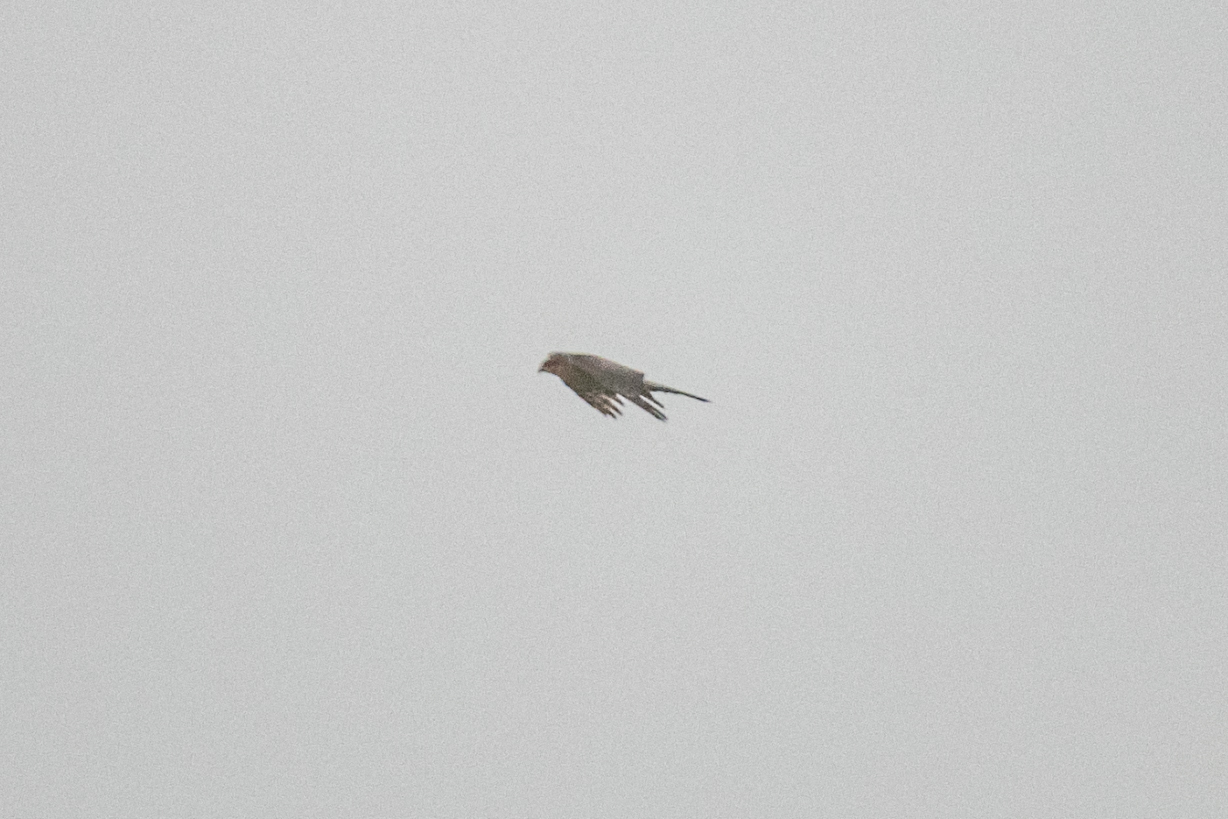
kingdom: Animalia
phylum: Chordata
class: Aves
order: Accipitriformes
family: Accipitridae
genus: Accipiter
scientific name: Accipiter nisus
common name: Eurasian sparrowhawk
